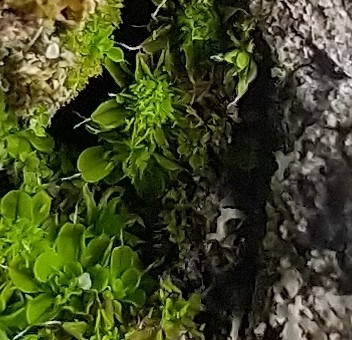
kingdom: Plantae
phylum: Bryophyta
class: Bryopsida
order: Pottiales
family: Pottiaceae
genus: Syntrichia
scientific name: Syntrichia pagorum
